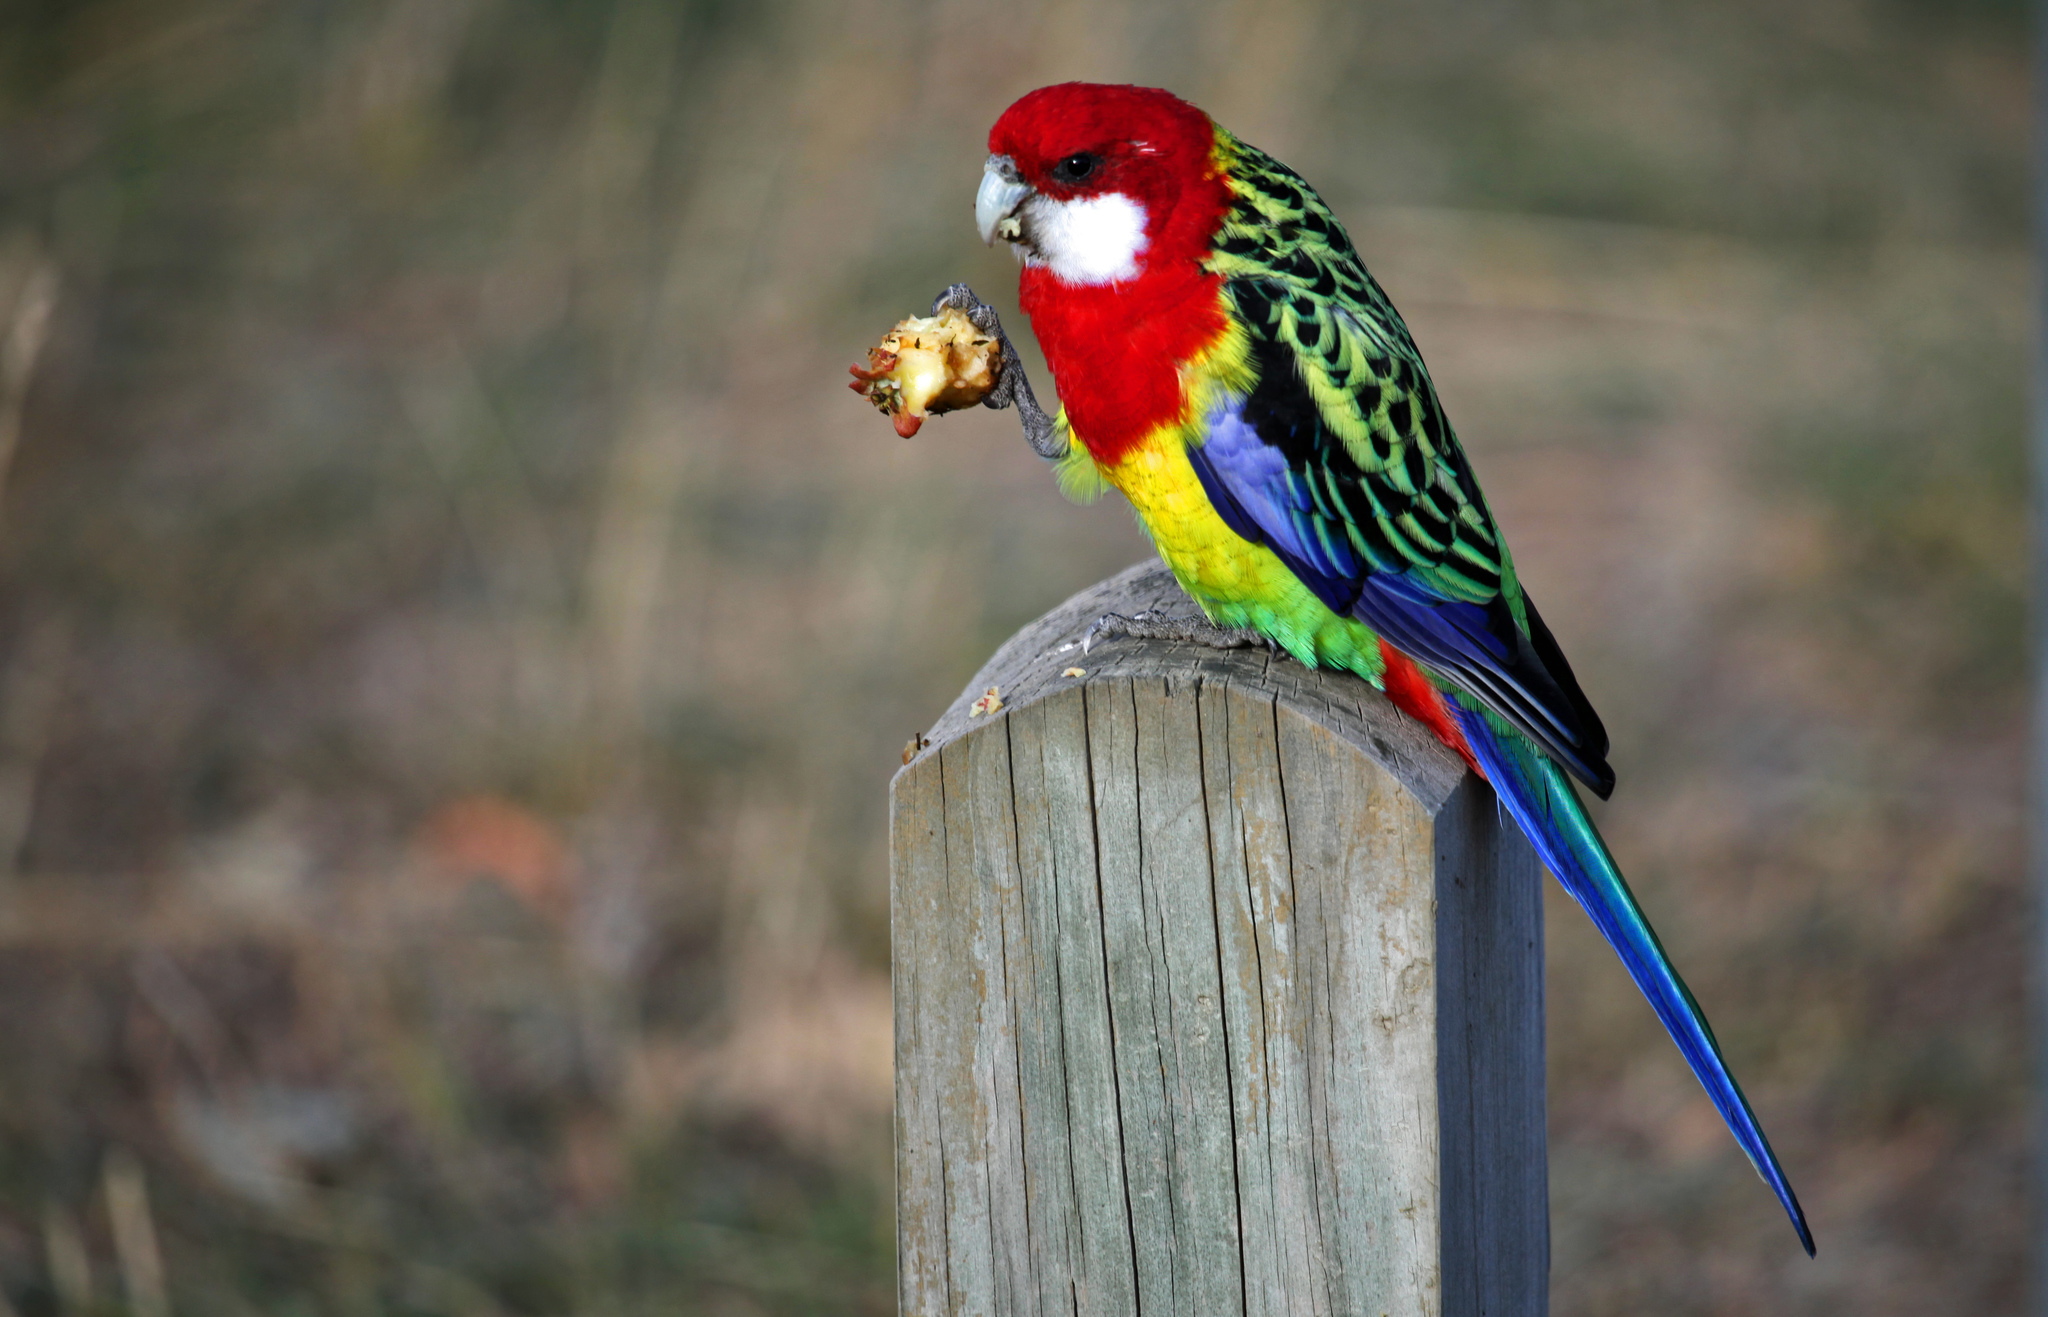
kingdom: Animalia
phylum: Chordata
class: Aves
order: Psittaciformes
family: Psittacidae
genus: Platycercus
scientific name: Platycercus eximius
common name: Eastern rosella
